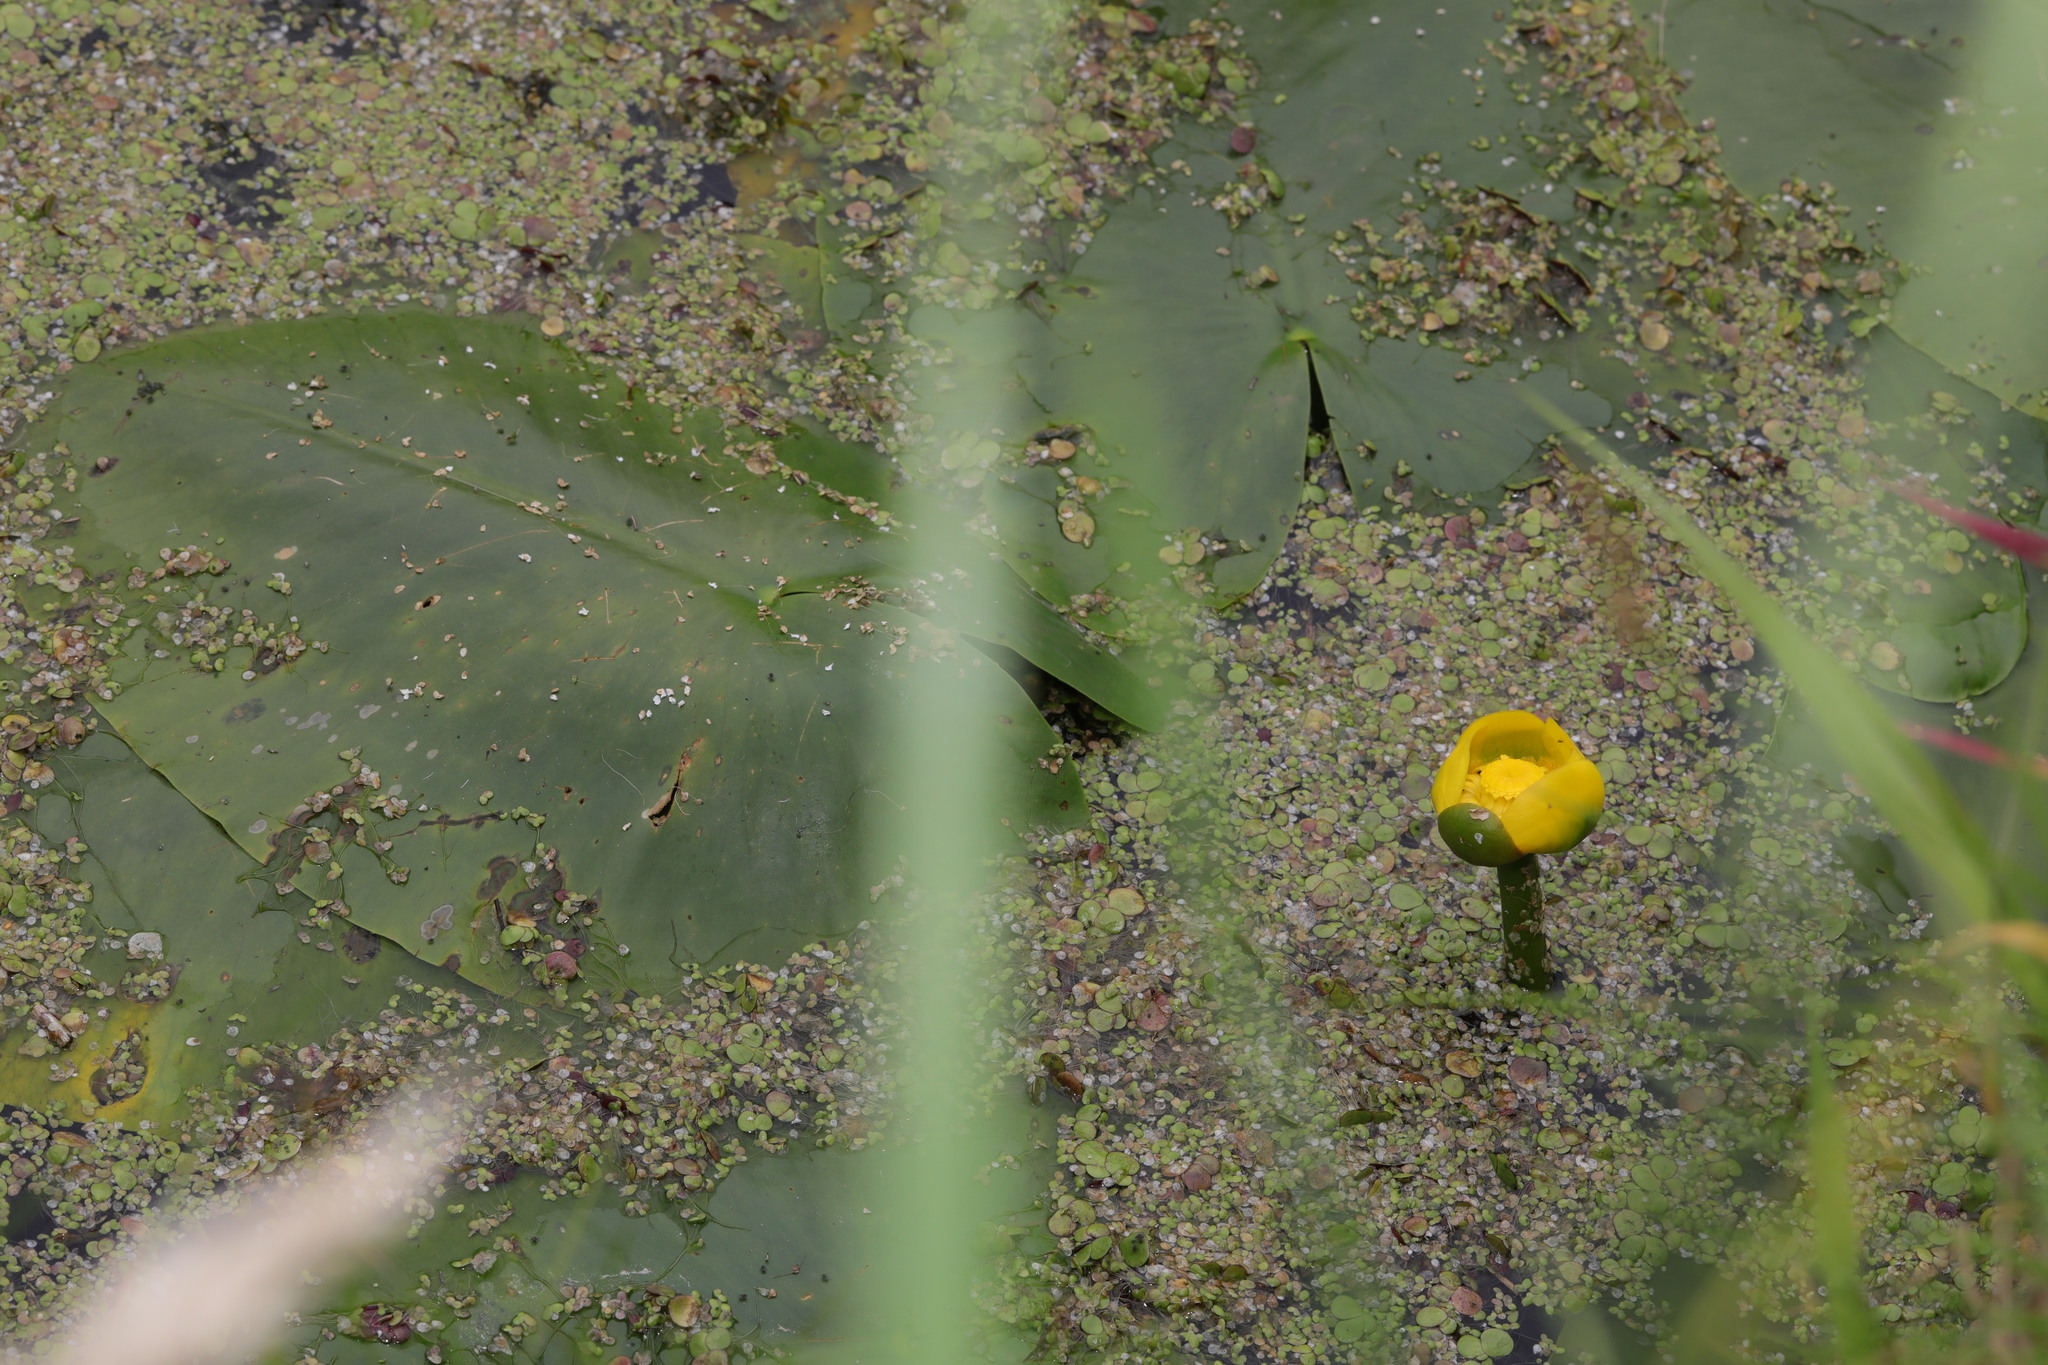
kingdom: Plantae
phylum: Tracheophyta
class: Magnoliopsida
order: Nymphaeales
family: Nymphaeaceae
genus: Nuphar
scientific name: Nuphar lutea
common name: Yellow water-lily
